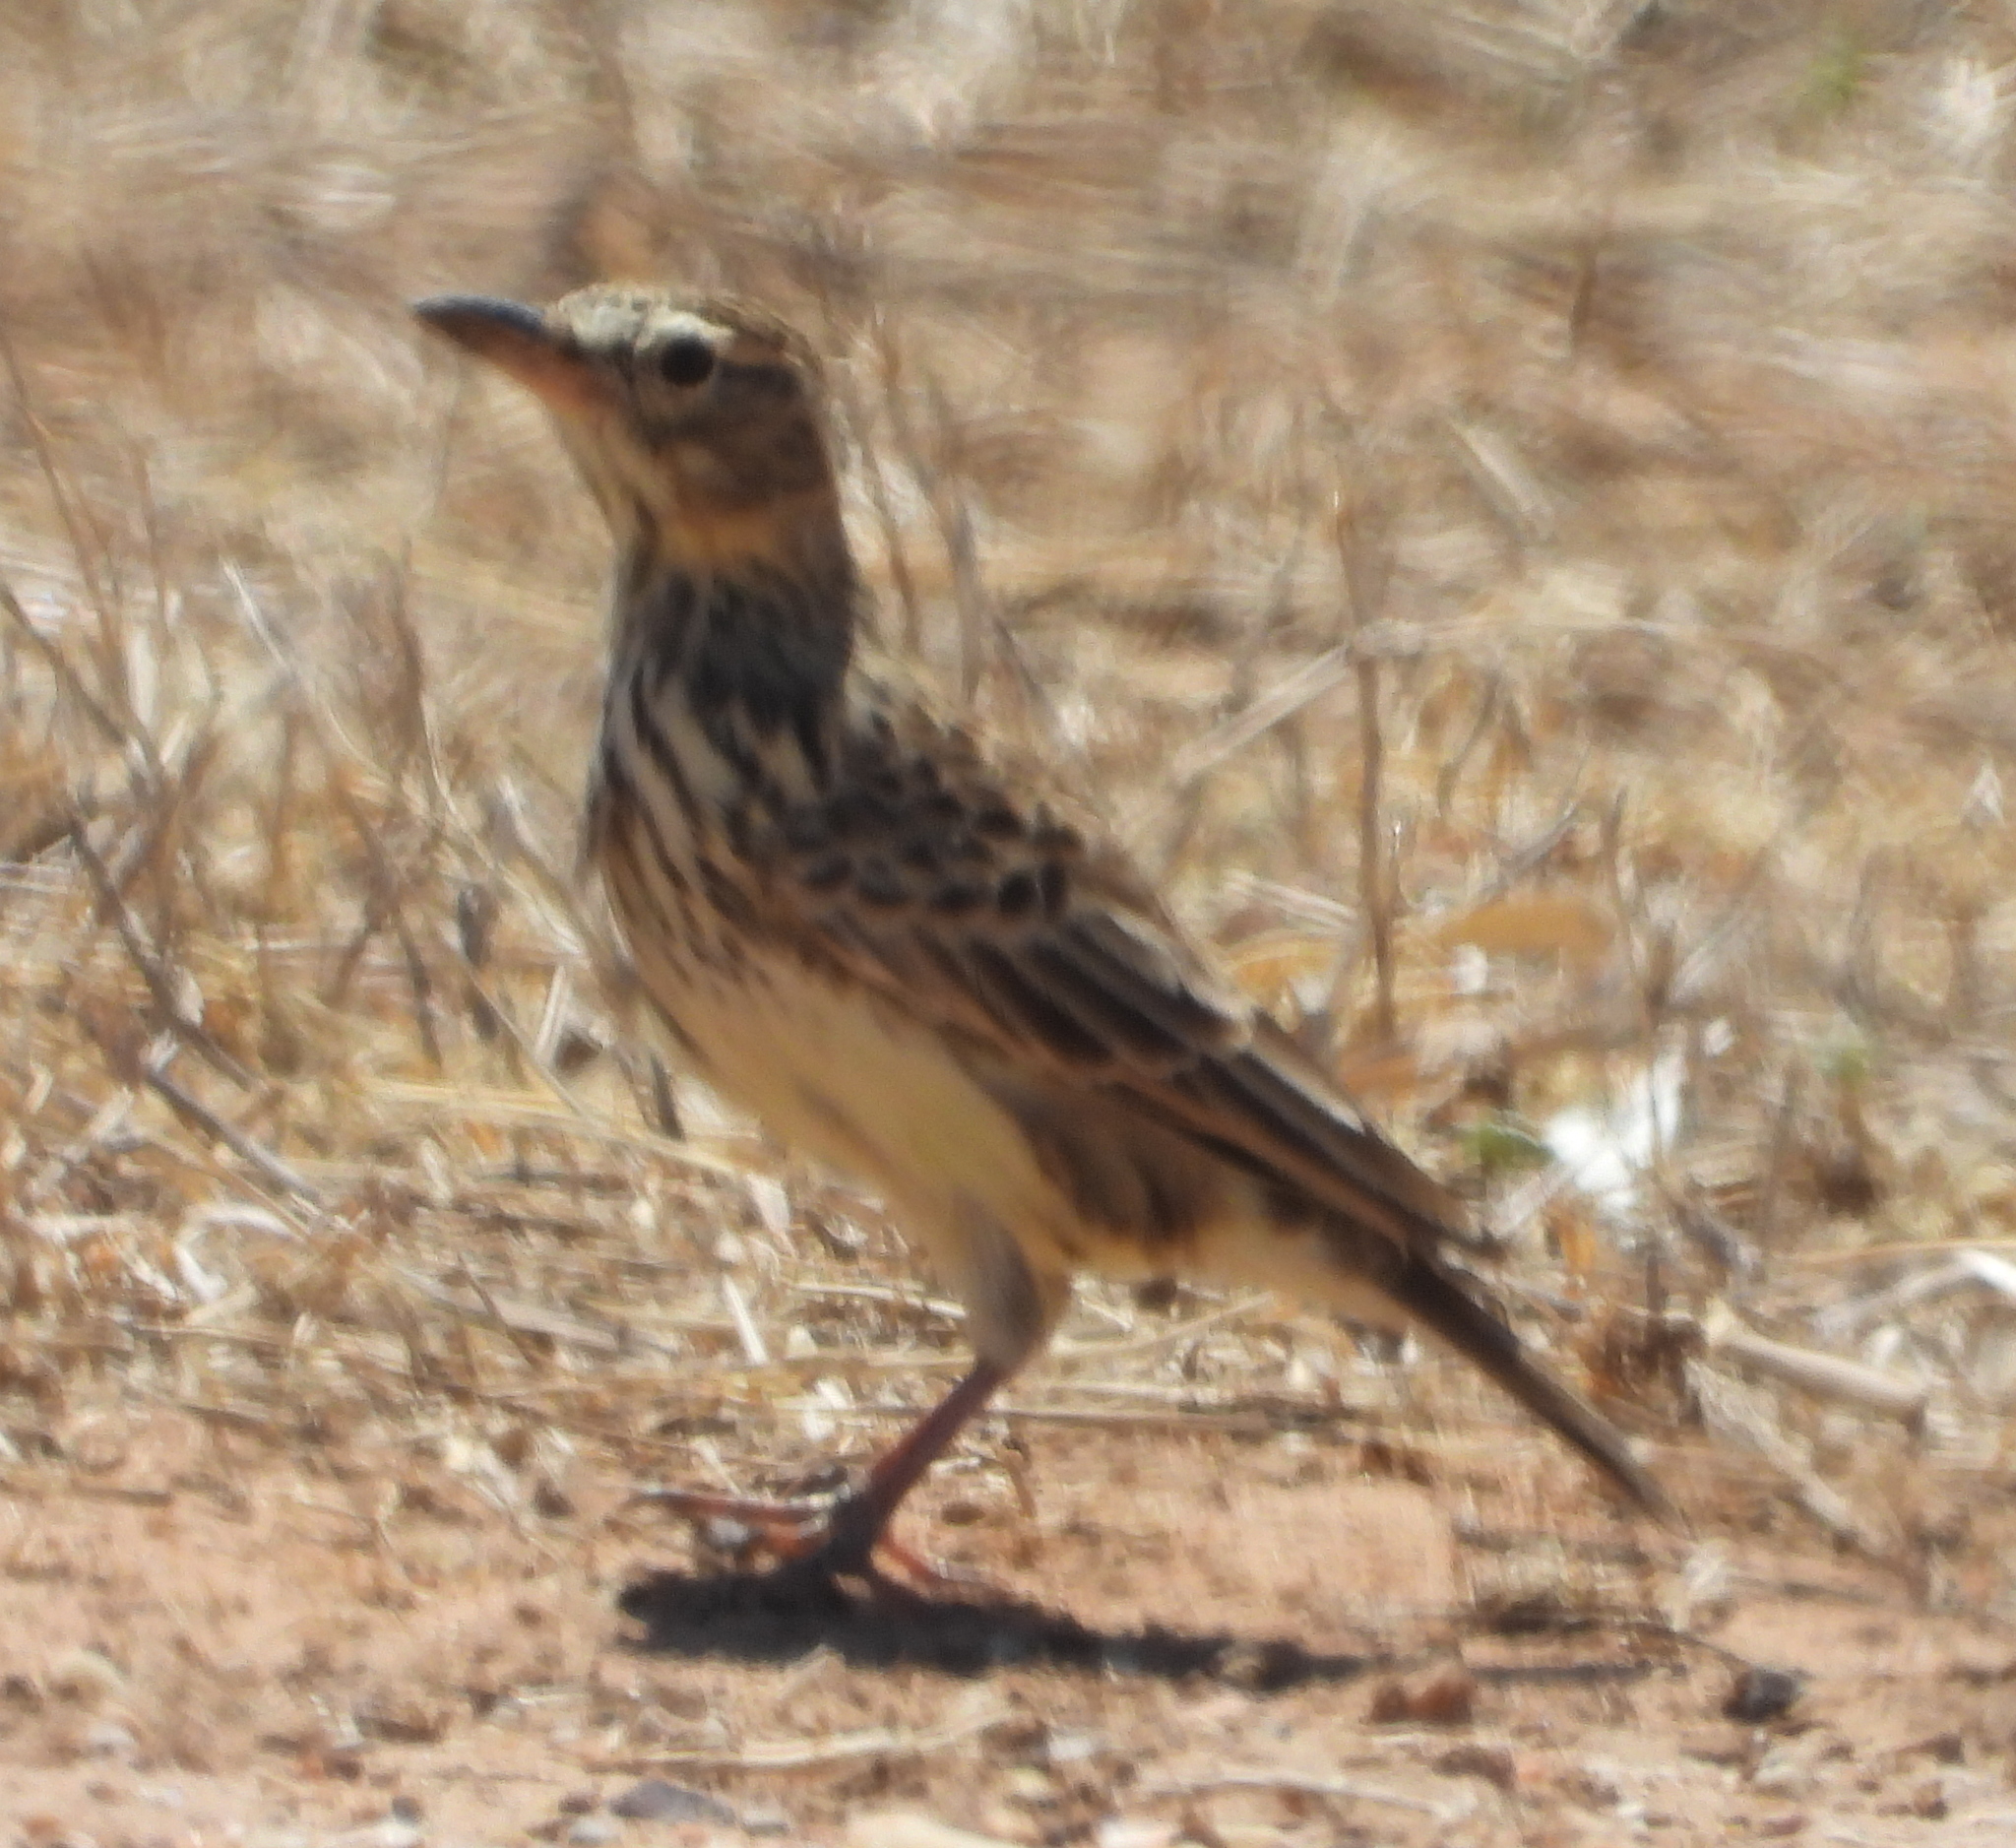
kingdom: Animalia
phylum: Chordata
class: Aves
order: Passeriformes
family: Alaudidae
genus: Galerida
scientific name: Galerida magnirostris
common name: Large-billed lark
